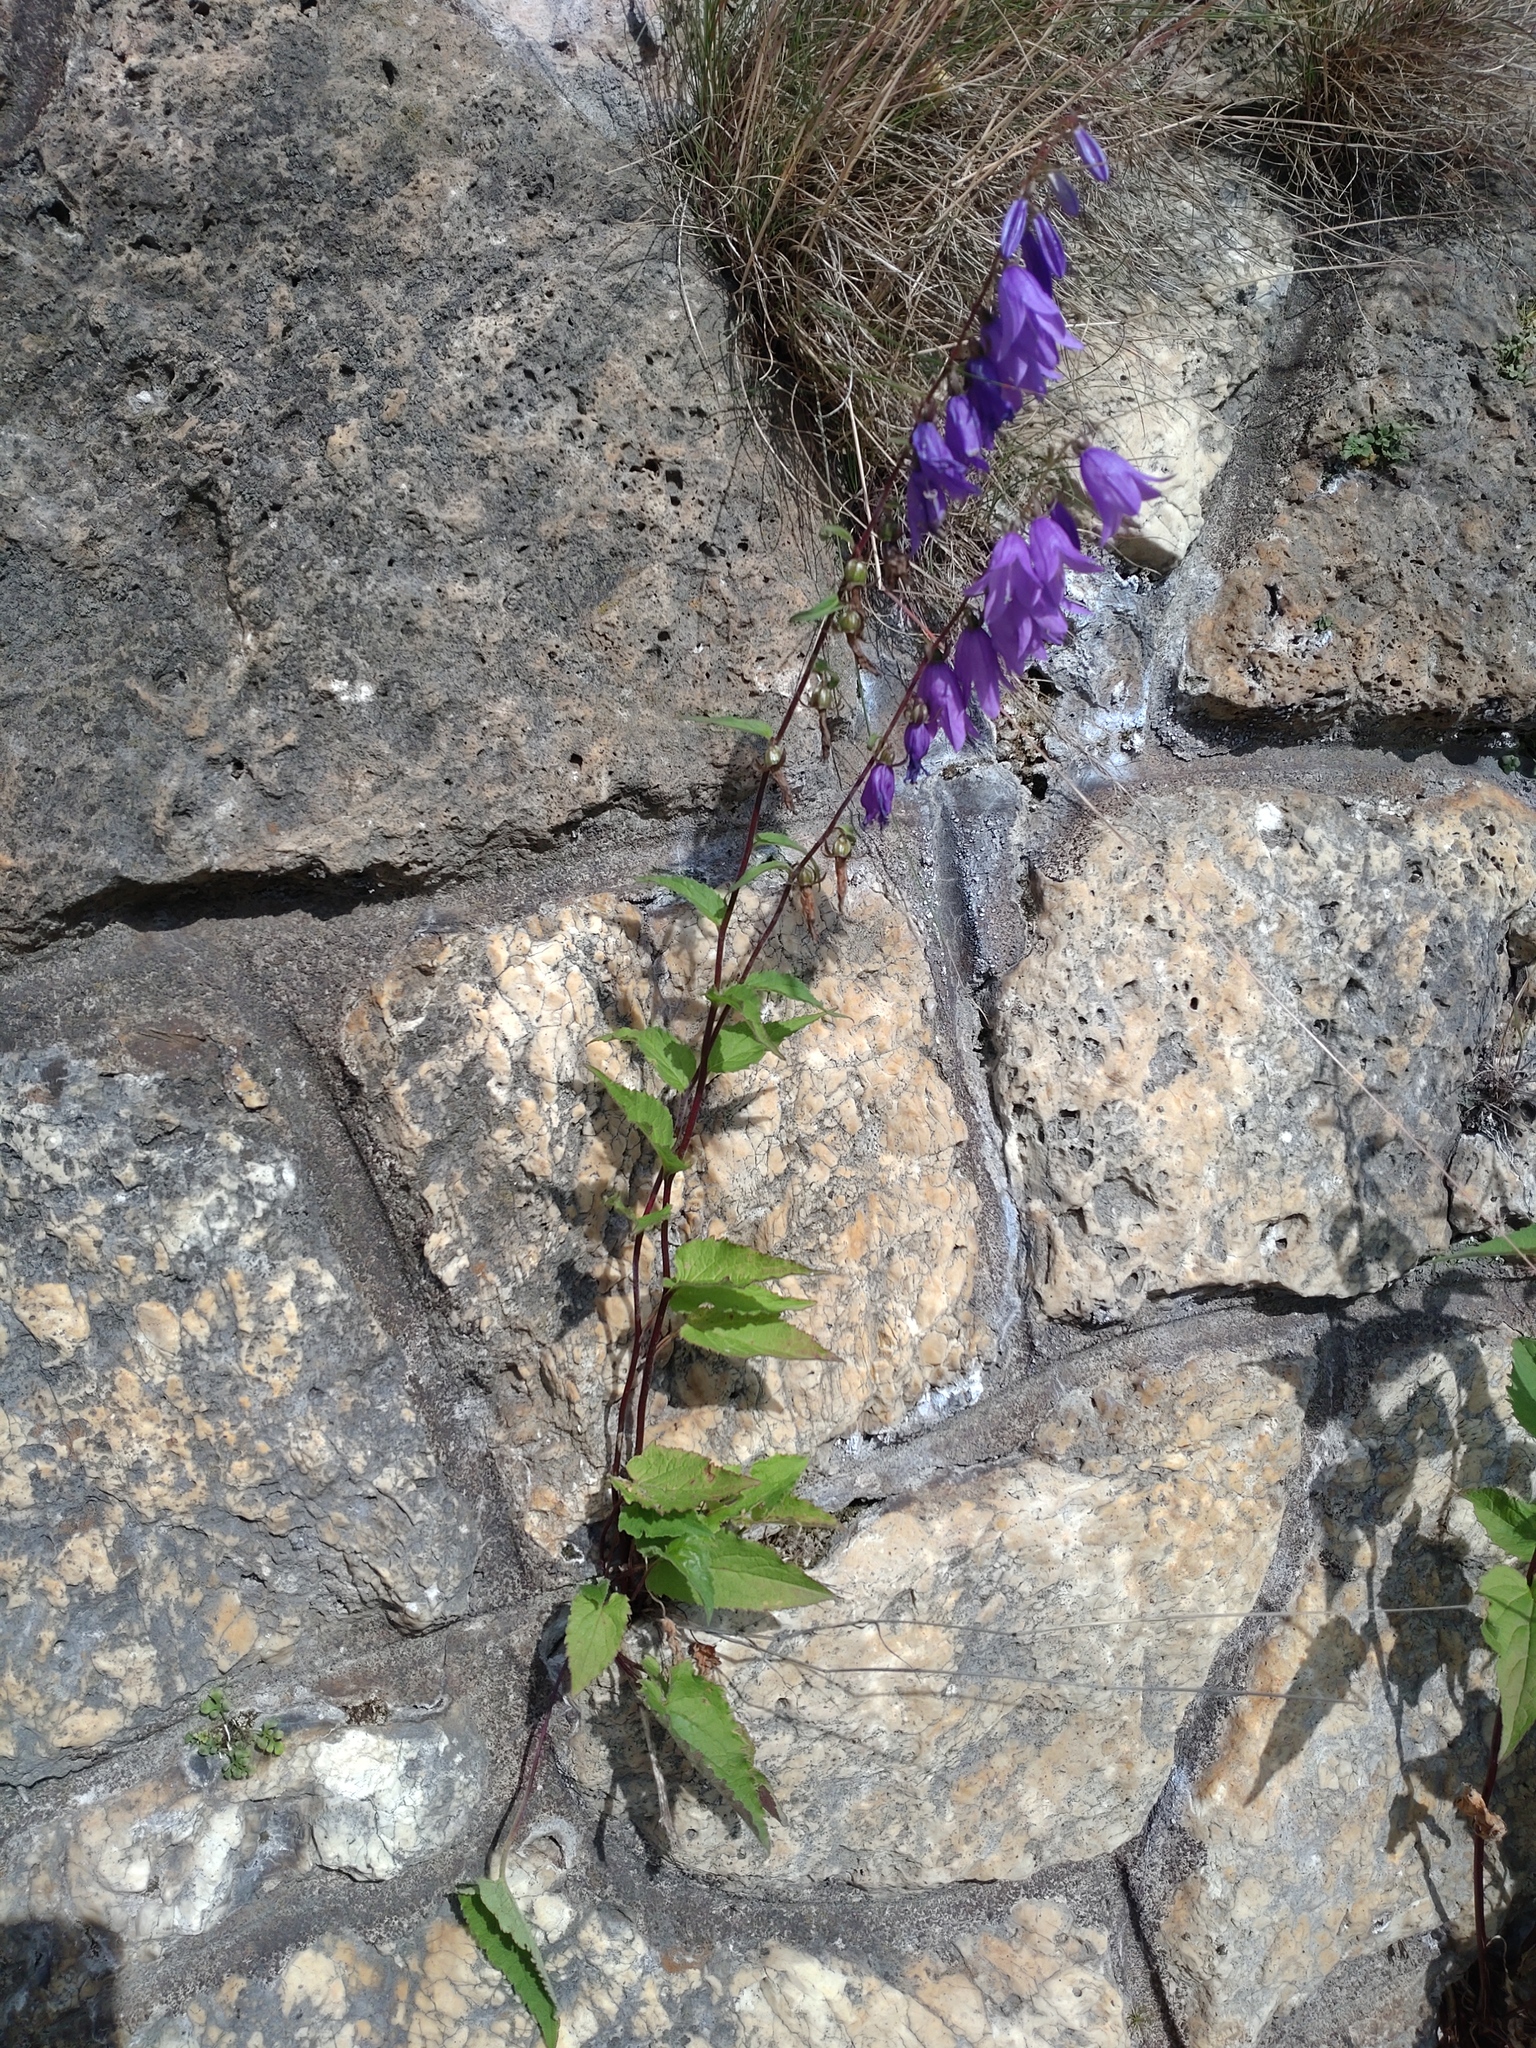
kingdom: Plantae
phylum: Tracheophyta
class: Magnoliopsida
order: Asterales
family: Campanulaceae
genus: Campanula
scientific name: Campanula rapunculoides
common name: Creeping bellflower
